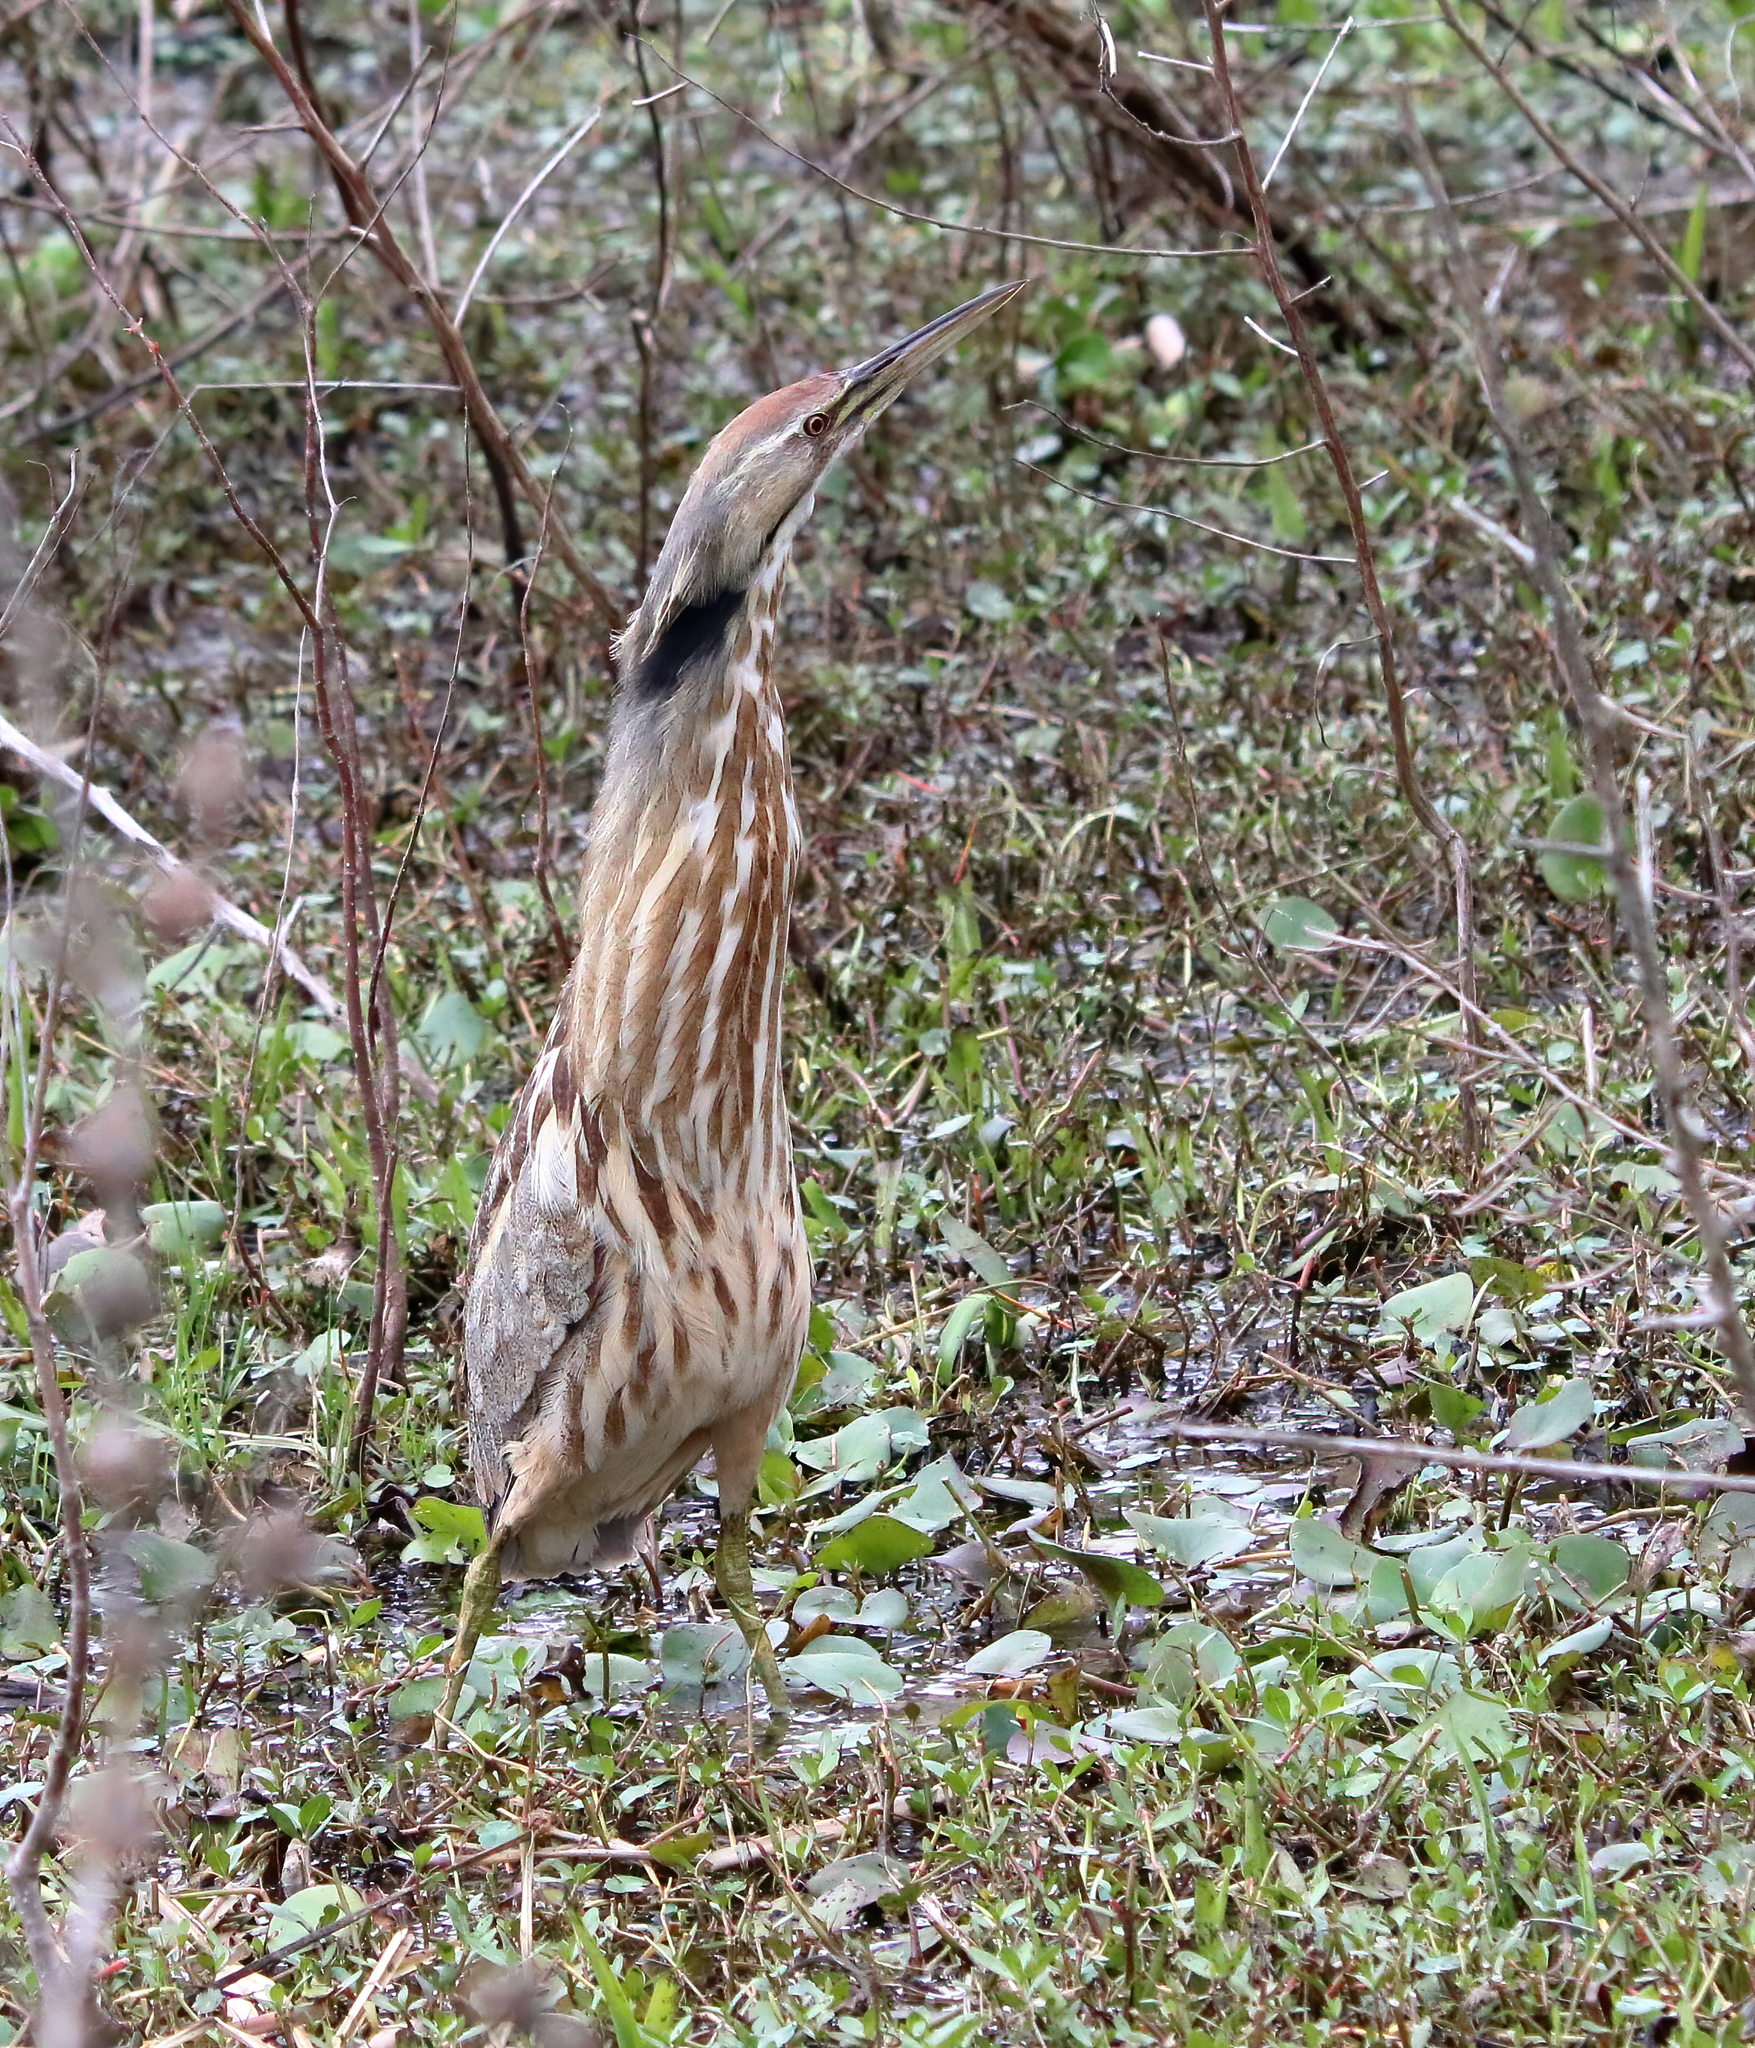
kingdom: Animalia
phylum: Chordata
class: Aves
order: Pelecaniformes
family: Ardeidae
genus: Botaurus
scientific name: Botaurus lentiginosus
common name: American bittern
